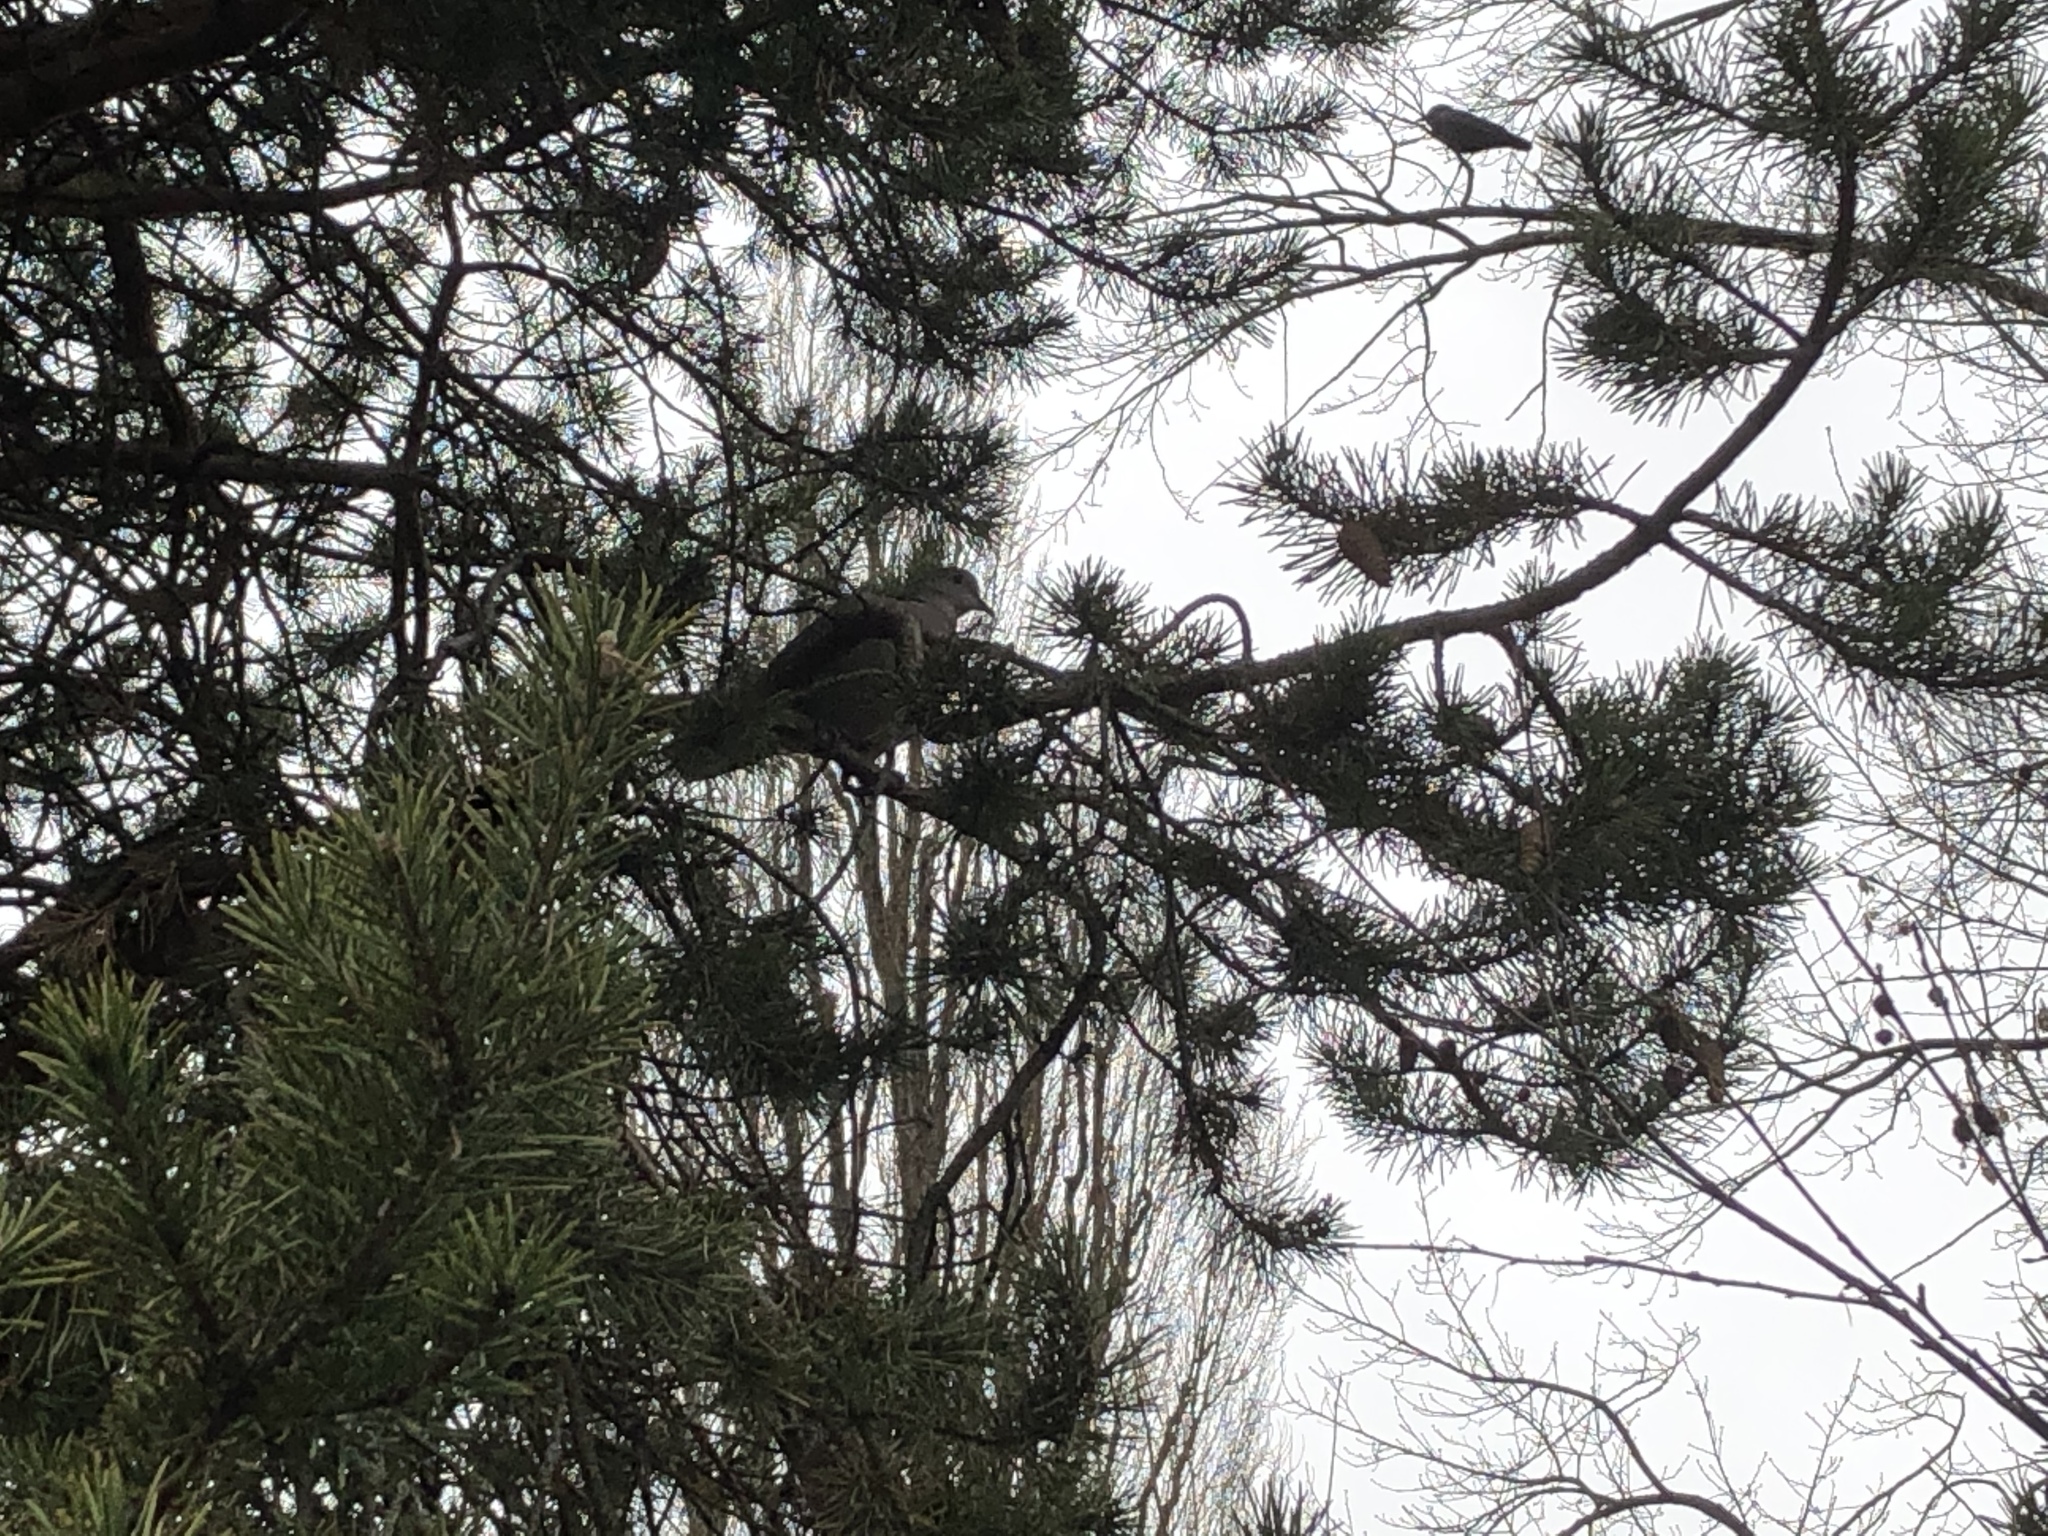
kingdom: Animalia
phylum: Chordata
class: Aves
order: Columbiformes
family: Columbidae
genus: Streptopelia
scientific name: Streptopelia decaocto
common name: Eurasian collared dove
